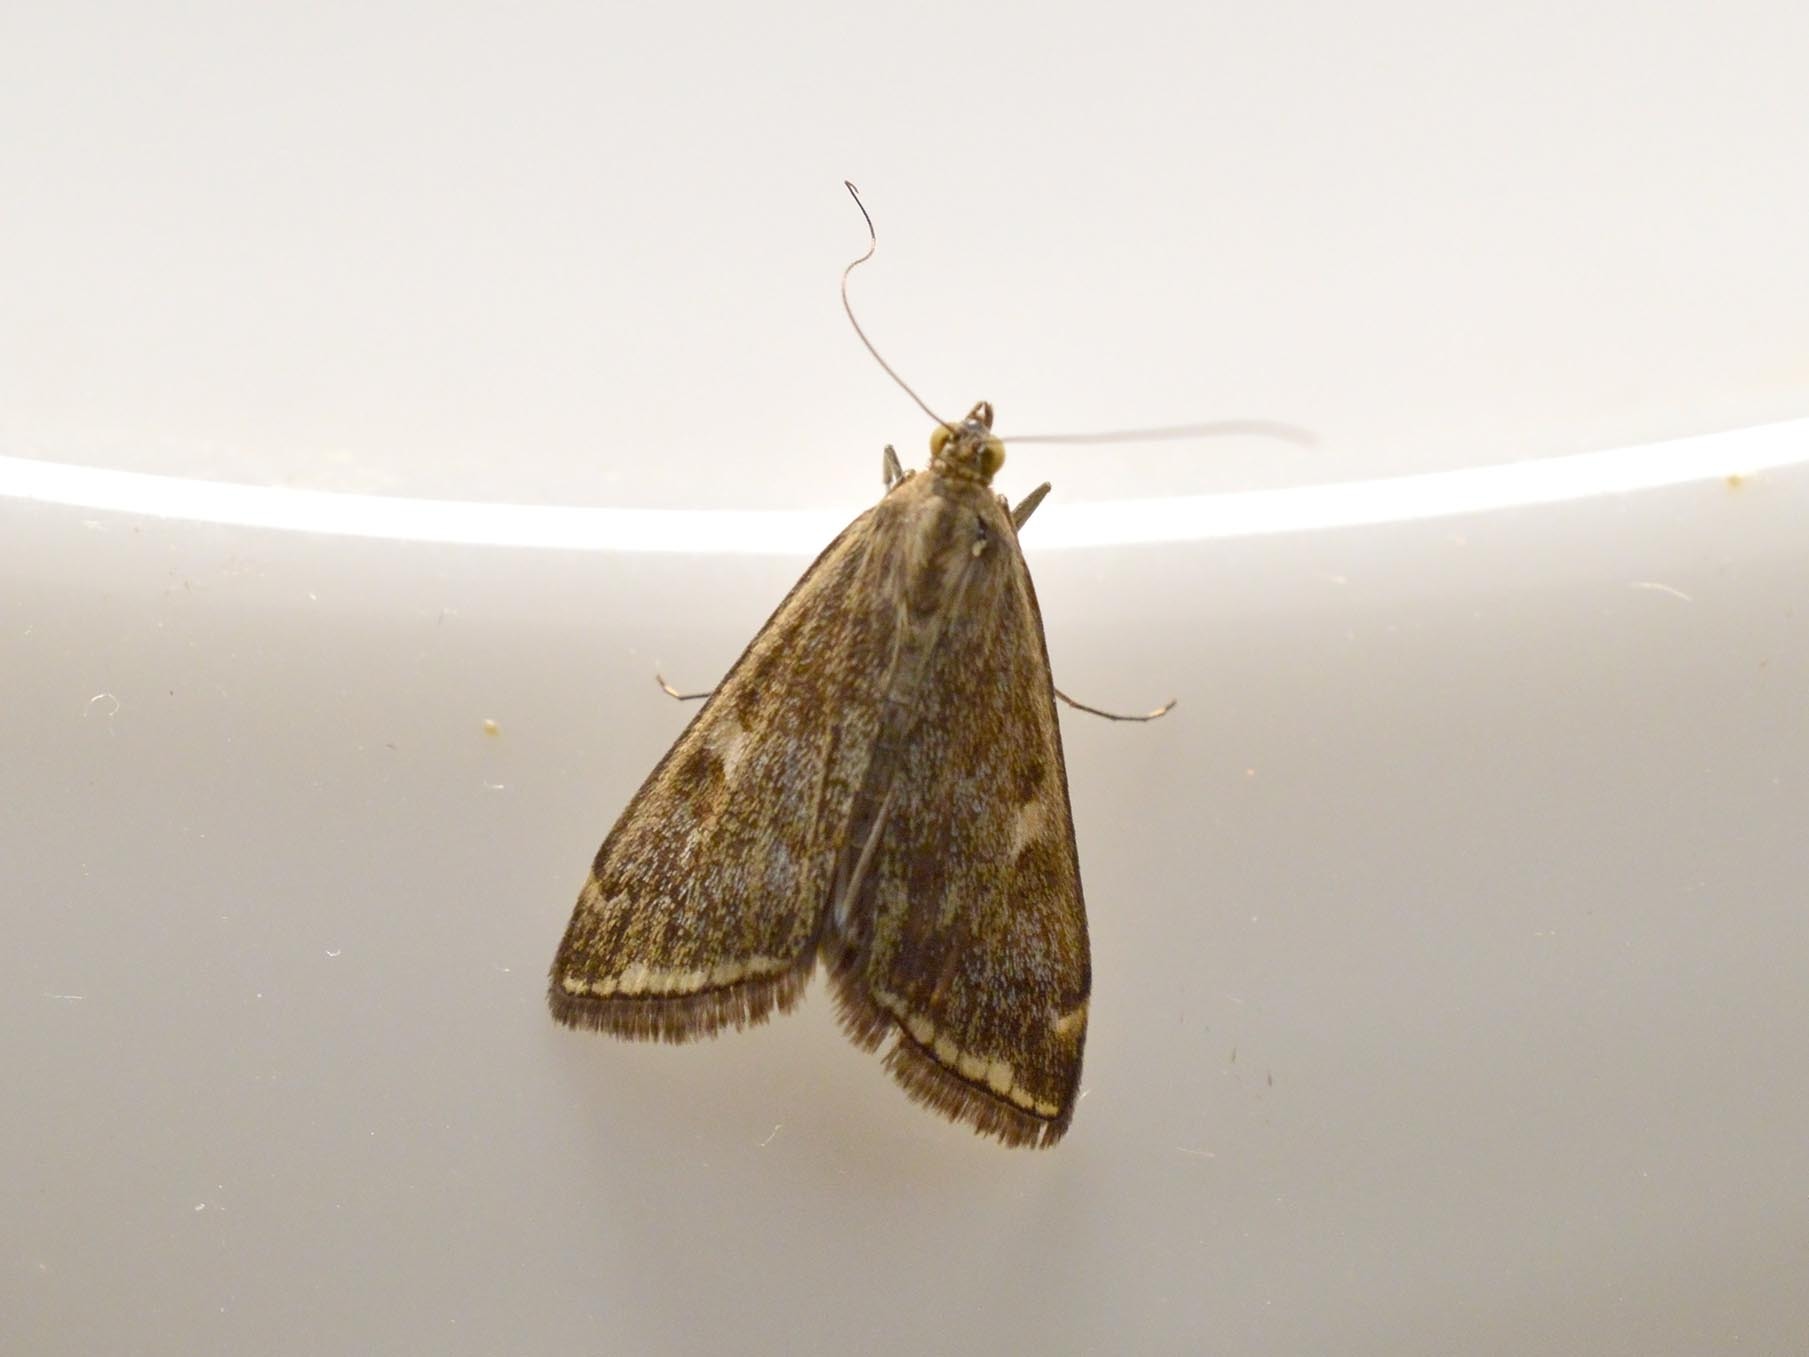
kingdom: Animalia
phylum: Arthropoda
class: Insecta
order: Lepidoptera
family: Crambidae
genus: Loxostege
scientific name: Loxostege sticticalis
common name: Crambid moth
